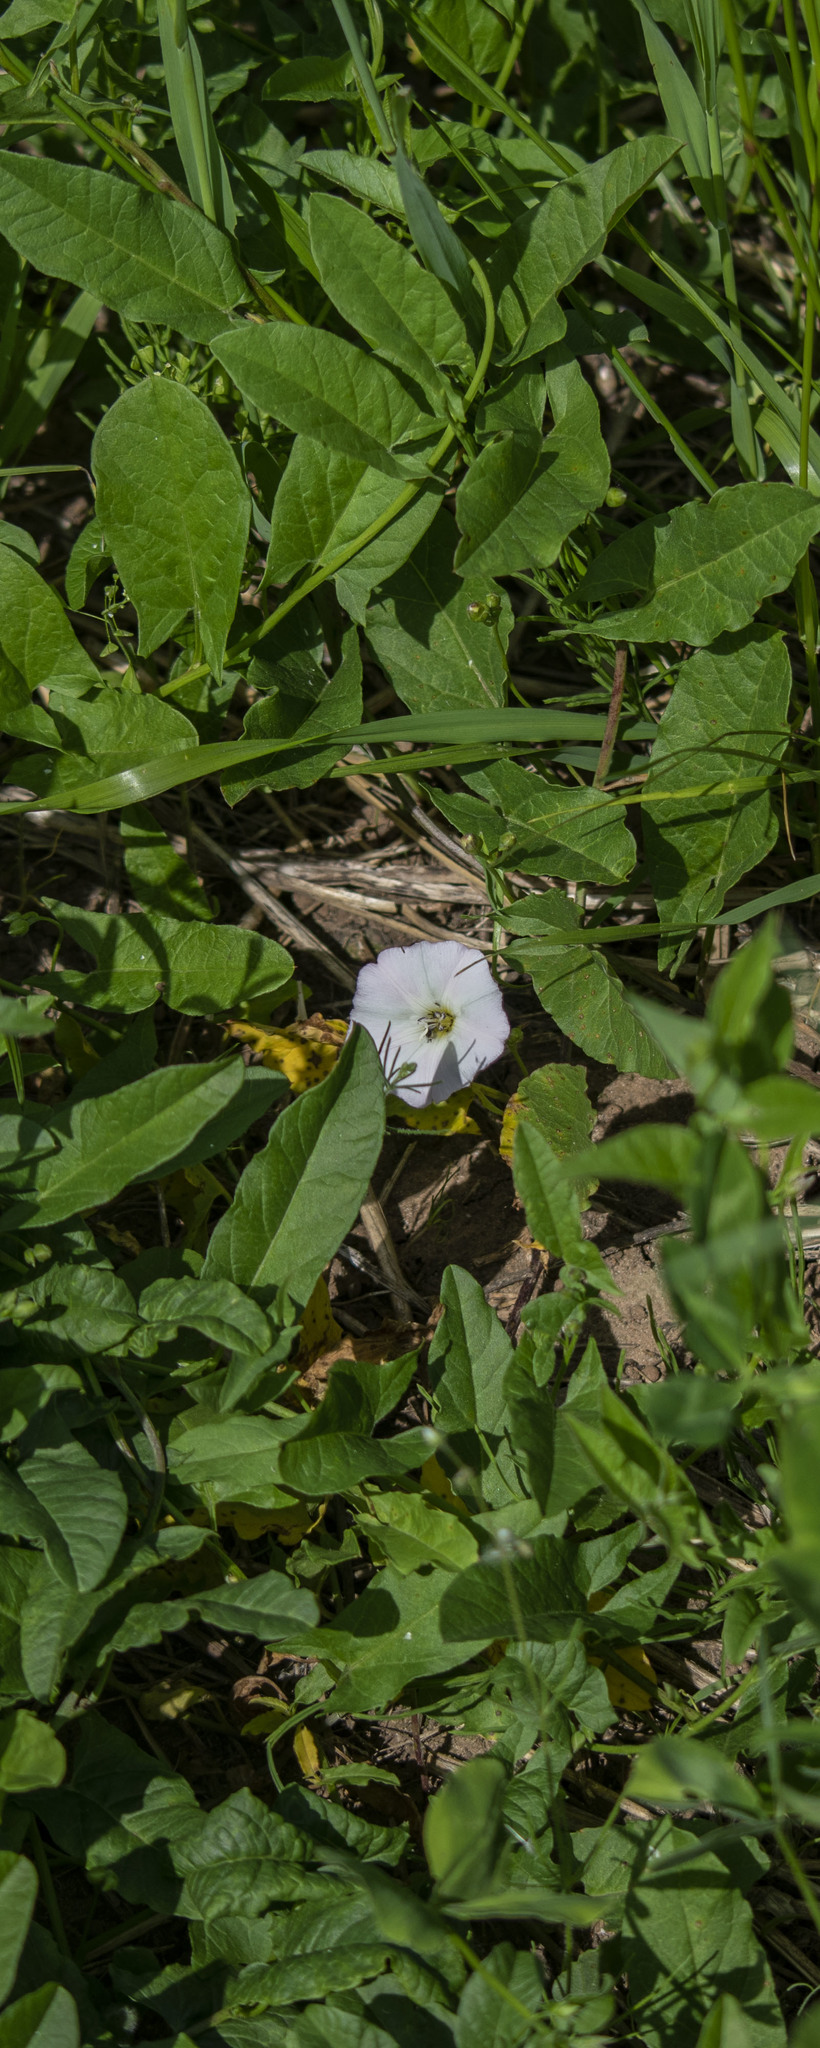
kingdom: Plantae
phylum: Tracheophyta
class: Magnoliopsida
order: Solanales
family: Convolvulaceae
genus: Convolvulus
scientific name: Convolvulus arvensis
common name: Field bindweed
